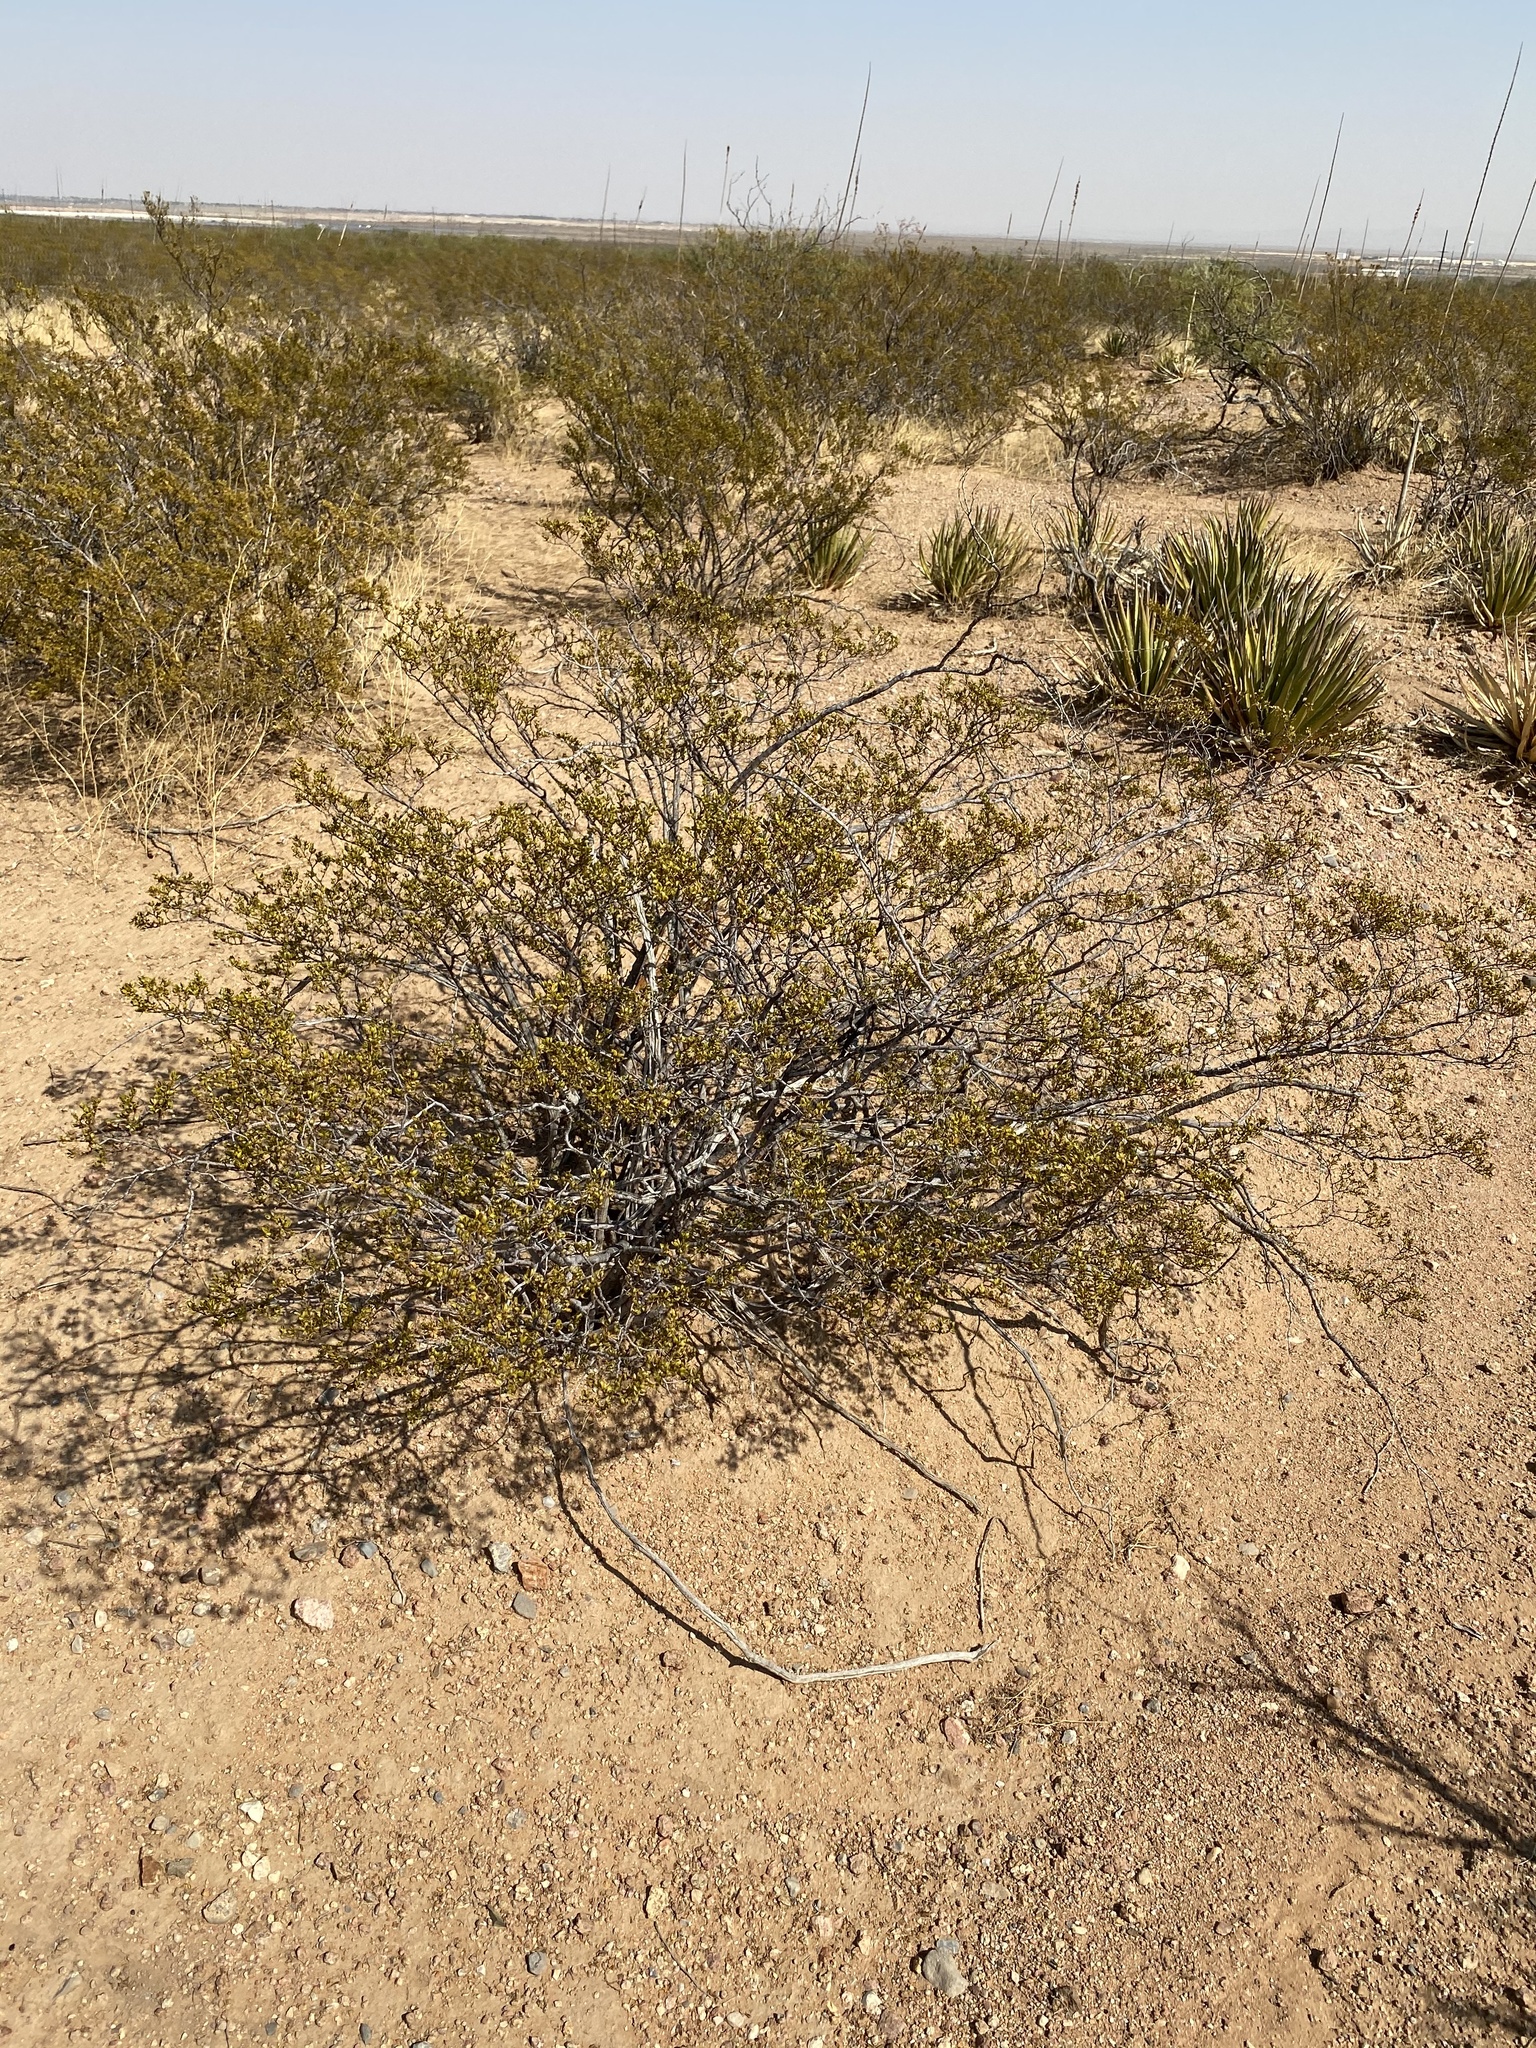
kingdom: Plantae
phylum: Tracheophyta
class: Magnoliopsida
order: Zygophyllales
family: Zygophyllaceae
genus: Larrea
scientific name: Larrea tridentata
